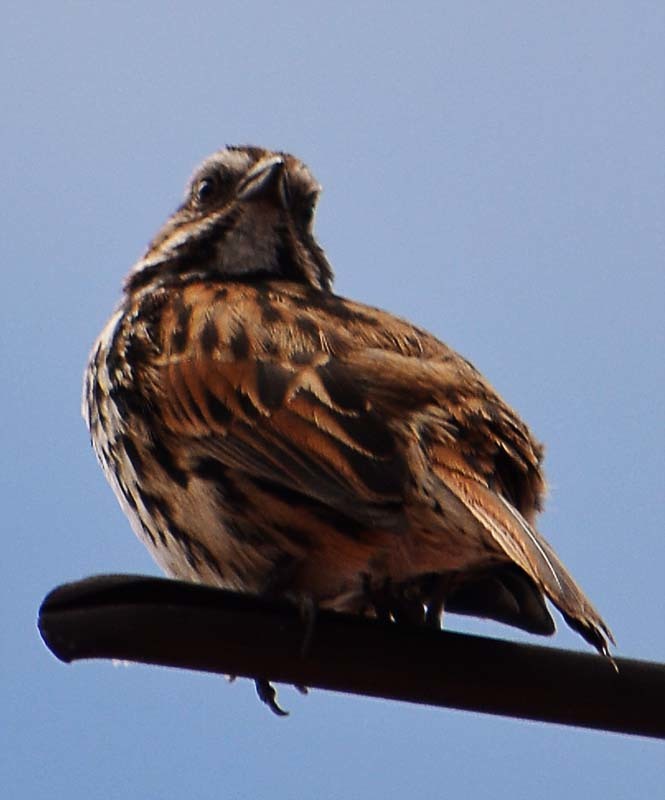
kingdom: Animalia
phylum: Chordata
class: Aves
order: Passeriformes
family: Passerellidae
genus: Melospiza
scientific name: Melospiza melodia
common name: Song sparrow
